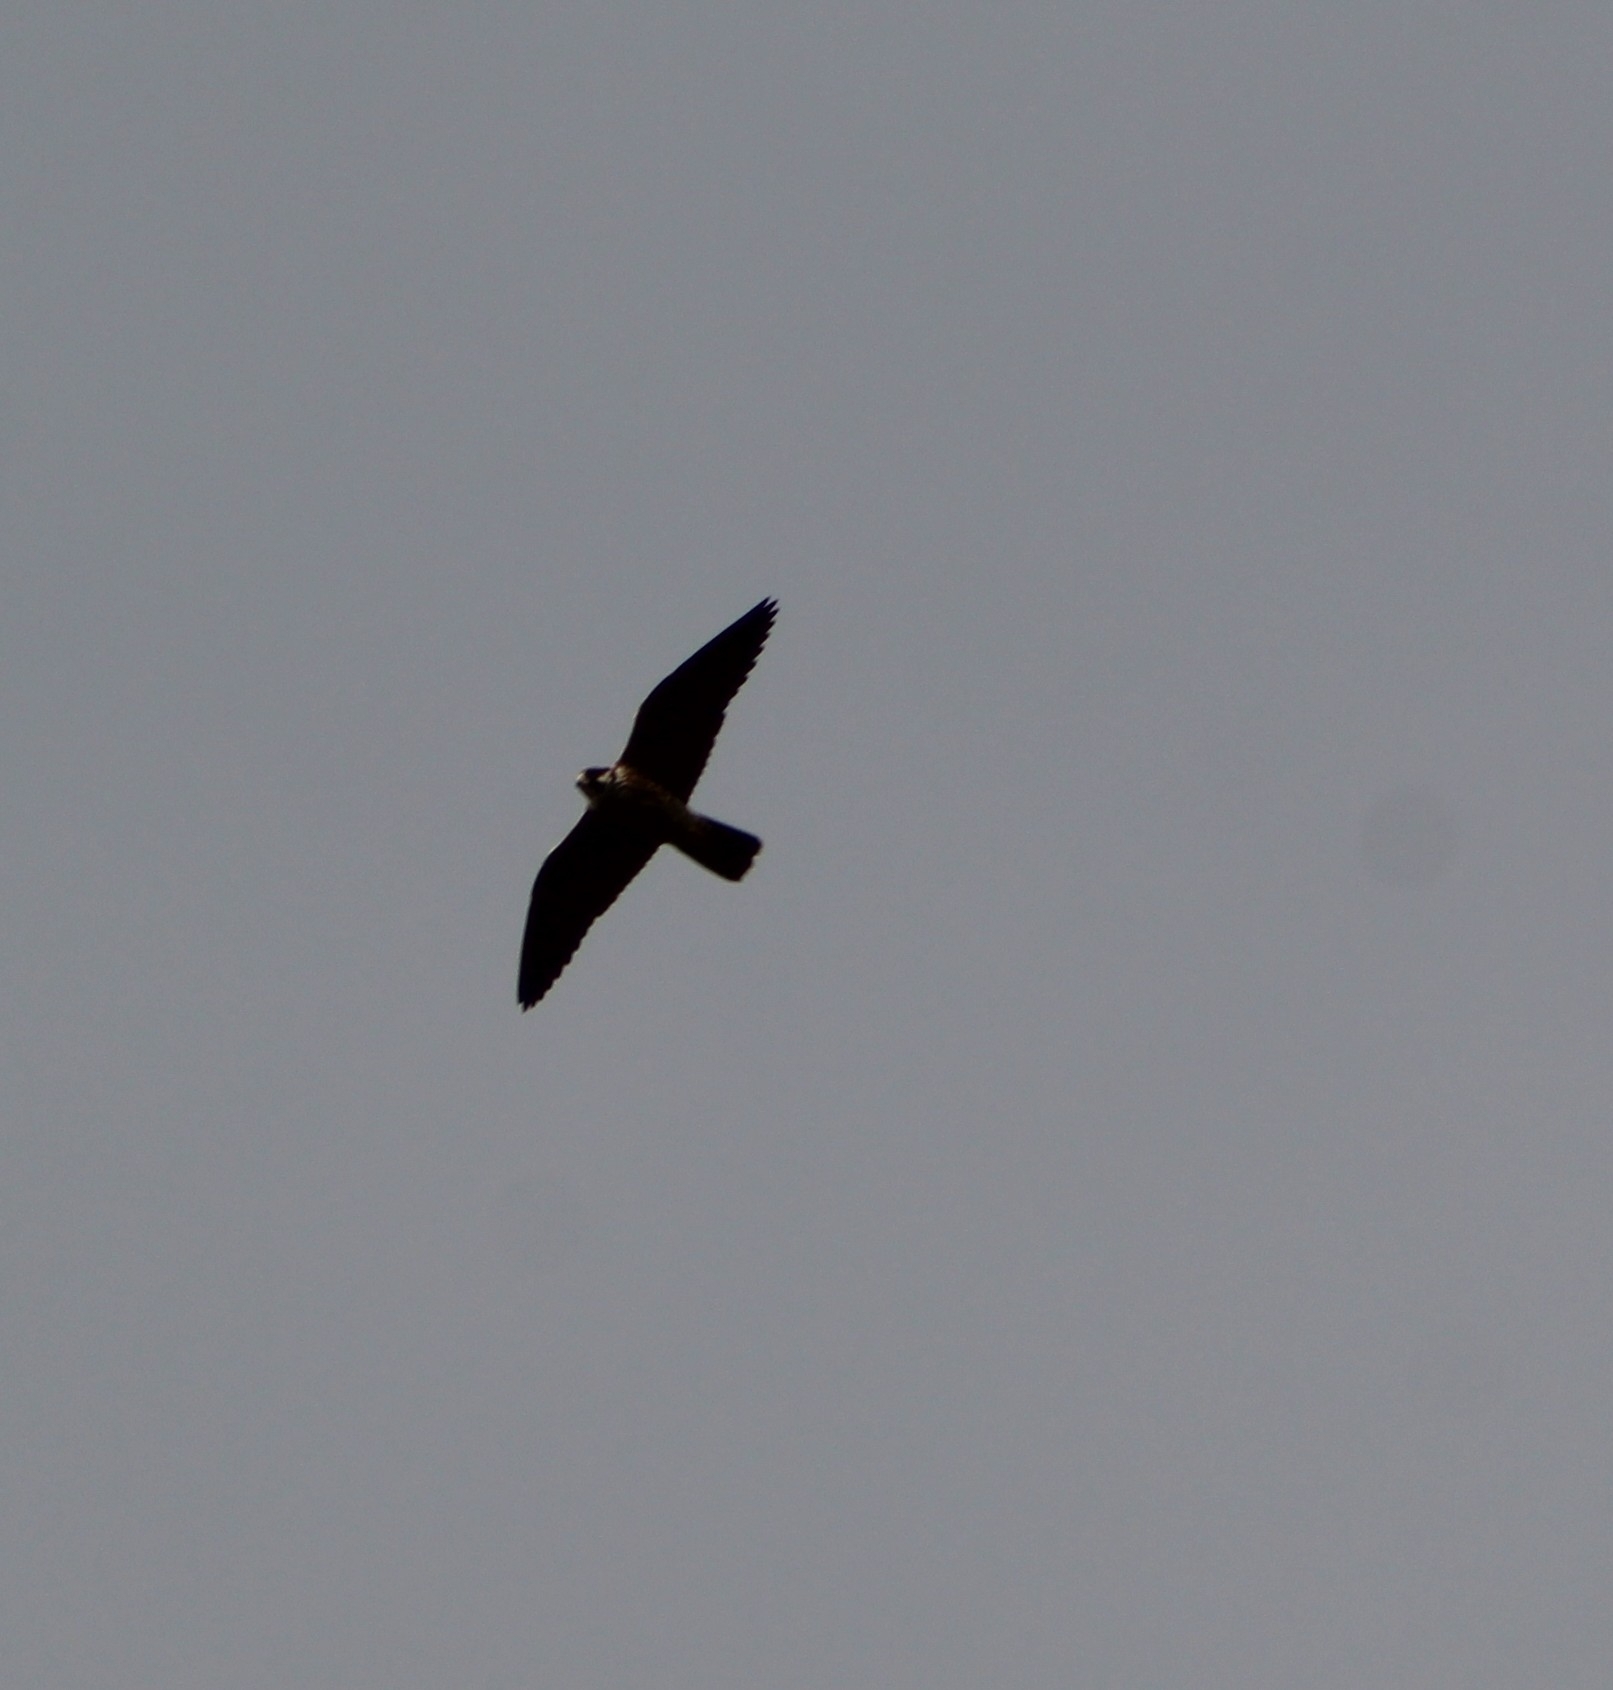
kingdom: Animalia
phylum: Chordata
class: Aves
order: Falconiformes
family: Falconidae
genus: Falco
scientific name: Falco peregrinus
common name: Peregrine falcon
